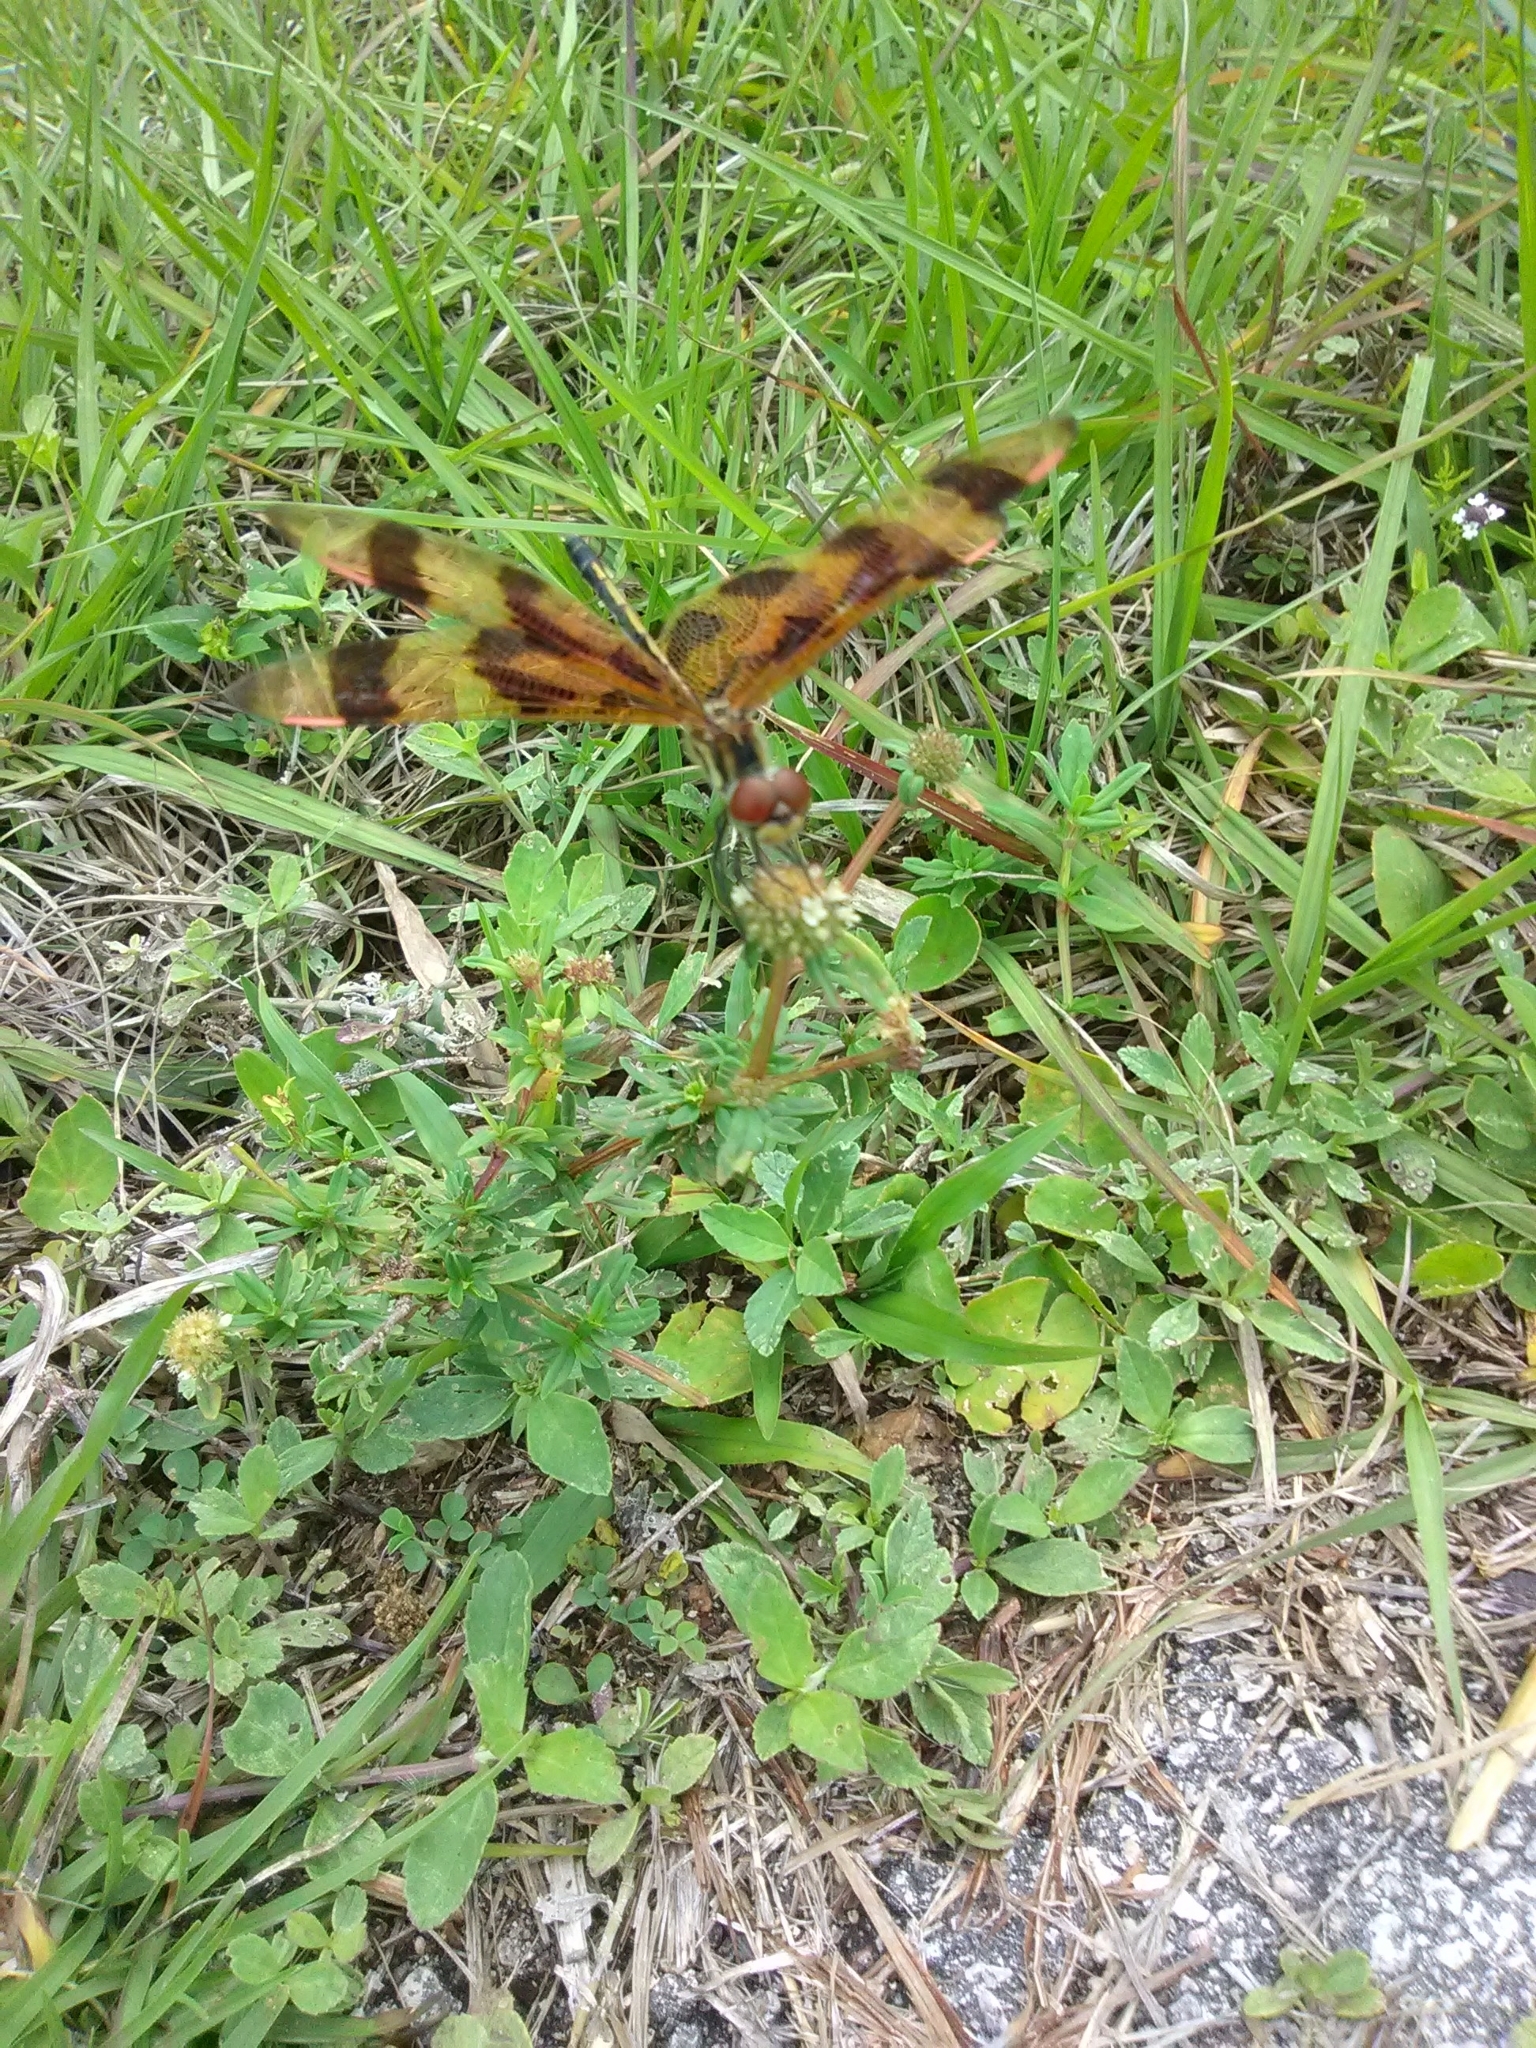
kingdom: Animalia
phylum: Arthropoda
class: Insecta
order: Odonata
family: Libellulidae
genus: Celithemis
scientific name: Celithemis eponina
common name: Halloween pennant
